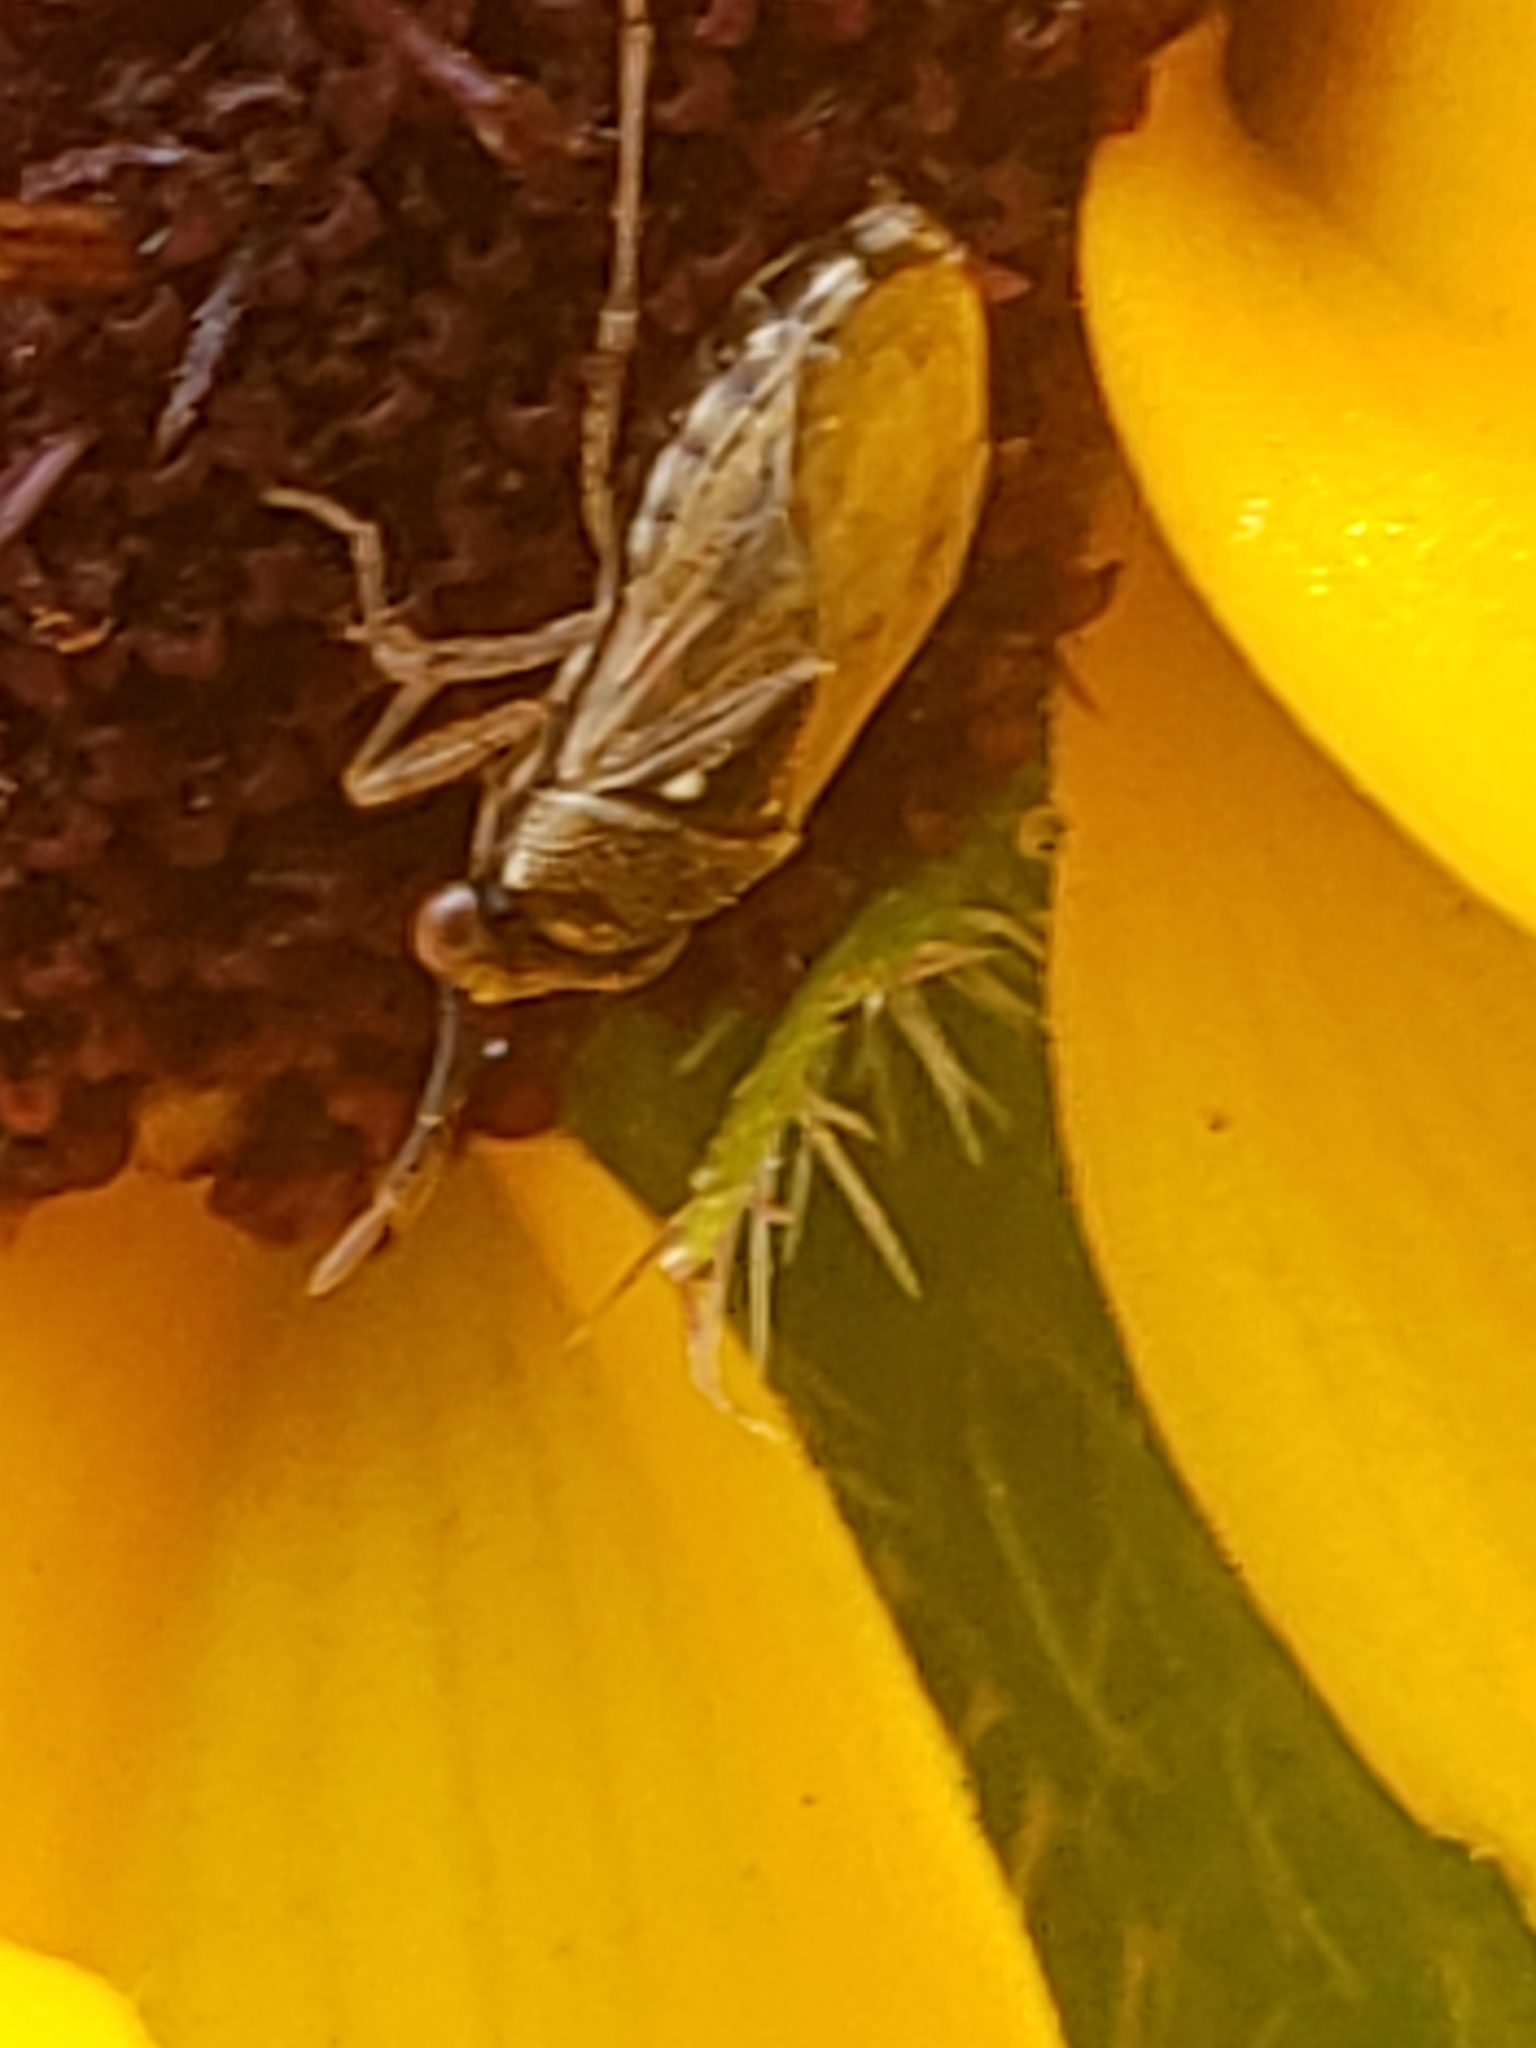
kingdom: Animalia
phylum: Arthropoda
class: Insecta
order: Hemiptera
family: Geocoridae
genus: Geocoris
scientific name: Geocoris punctipes
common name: Big-eyed bug
